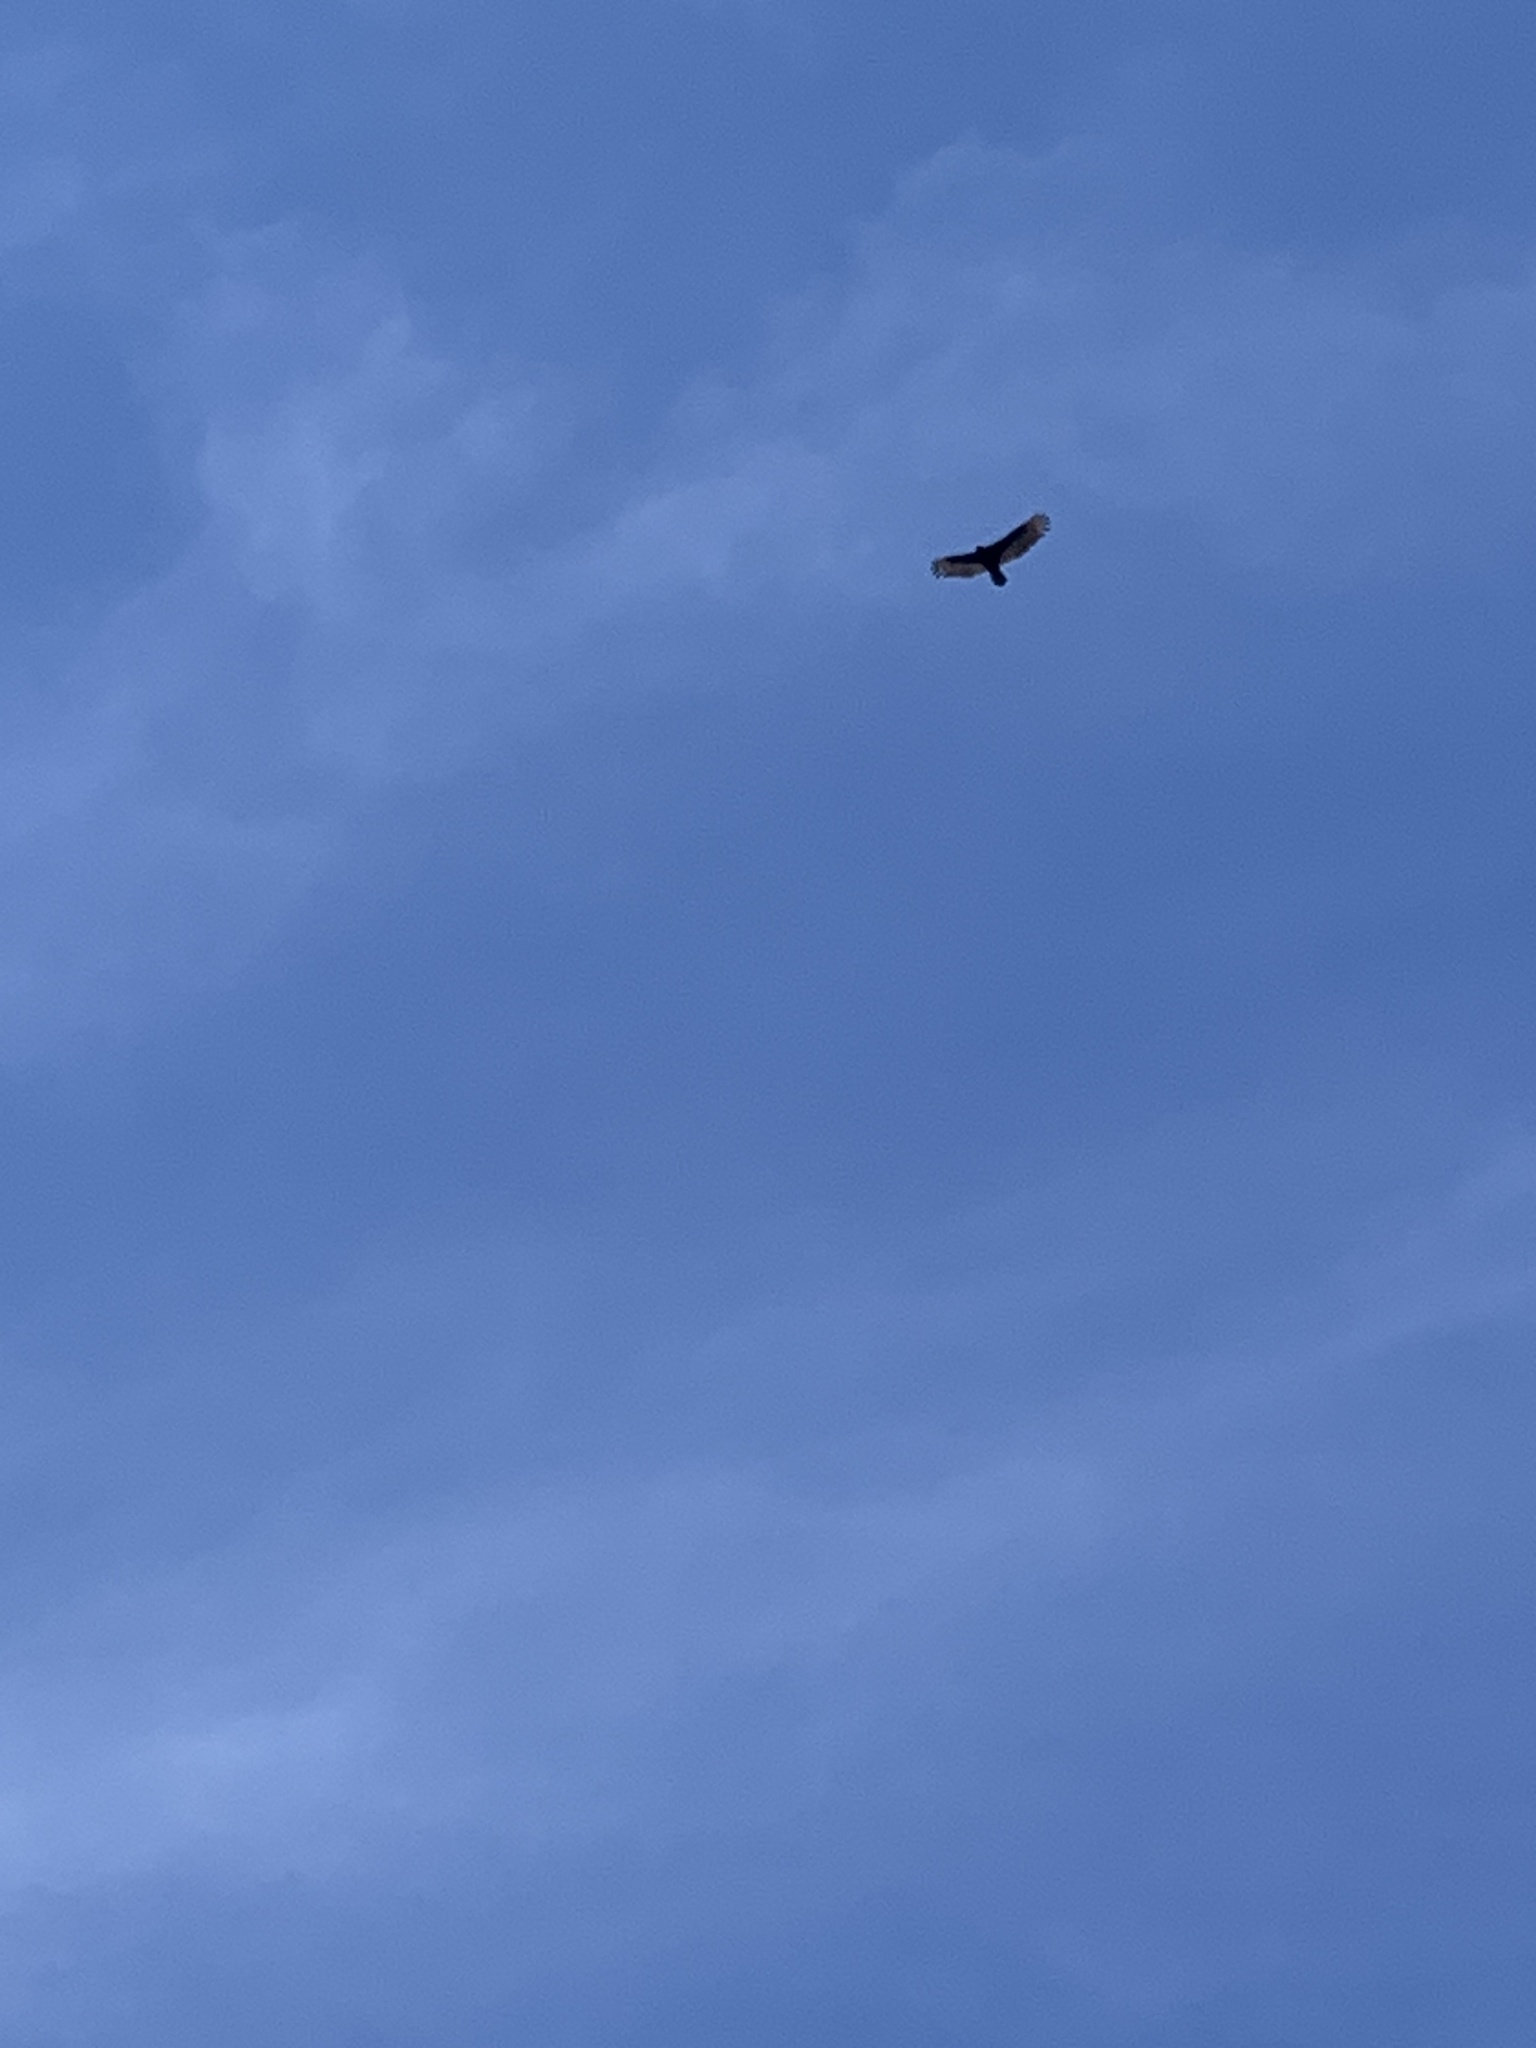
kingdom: Animalia
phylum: Chordata
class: Aves
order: Accipitriformes
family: Cathartidae
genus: Cathartes
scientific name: Cathartes aura
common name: Turkey vulture
